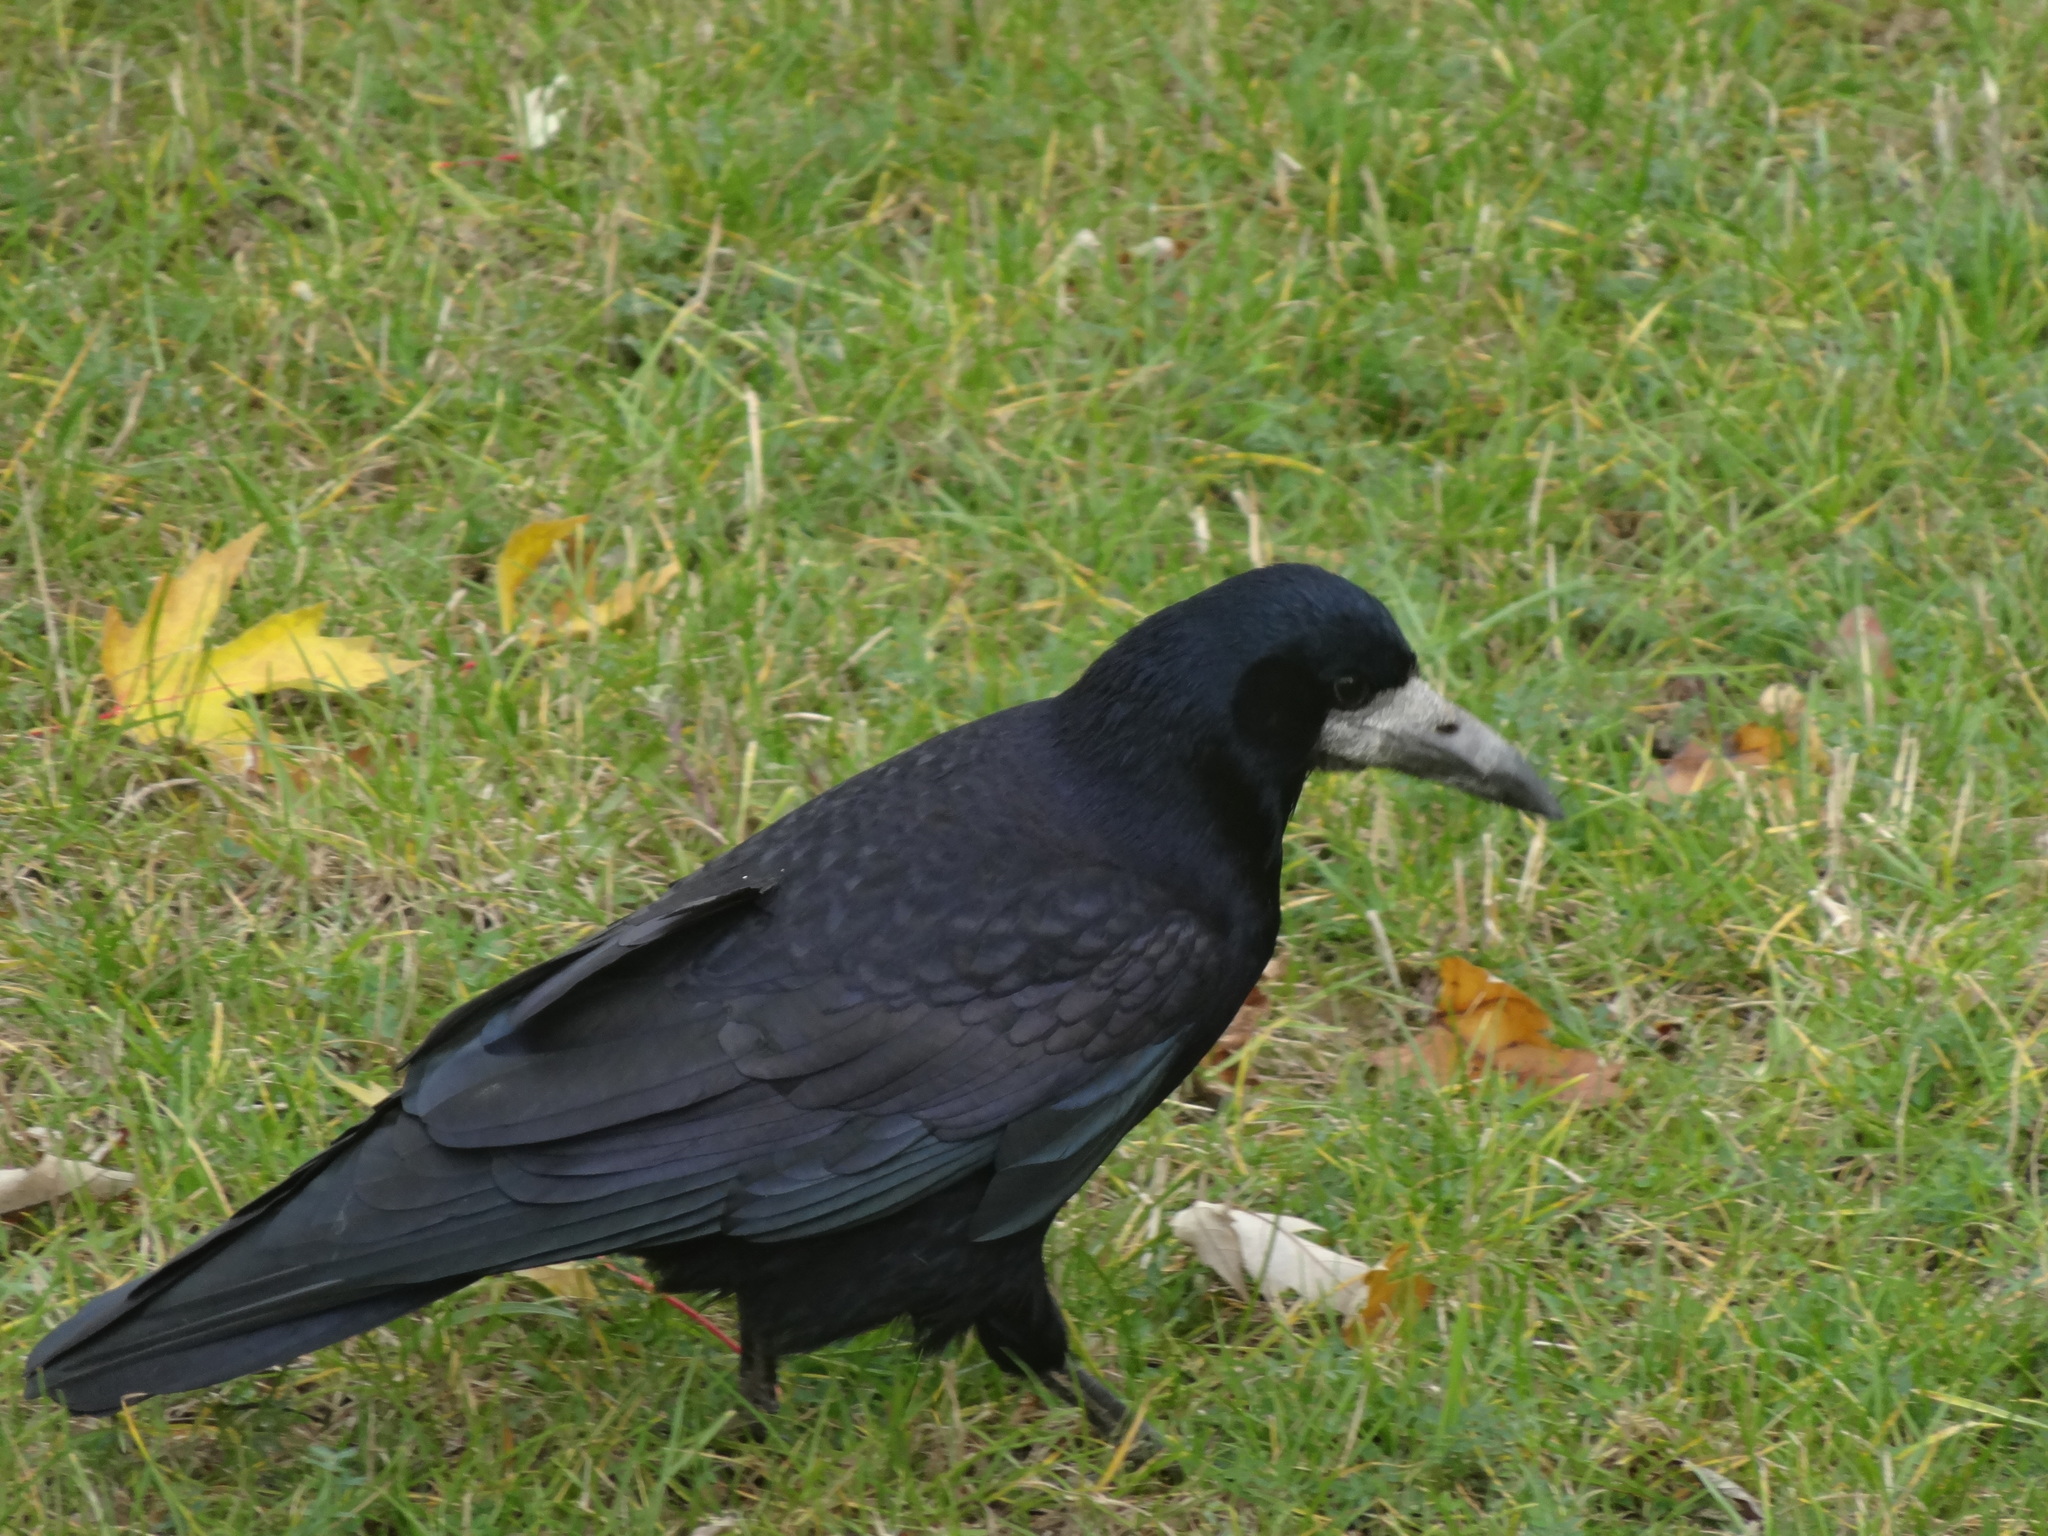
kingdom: Animalia
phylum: Chordata
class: Aves
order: Passeriformes
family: Corvidae
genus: Corvus
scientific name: Corvus frugilegus
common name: Rook
